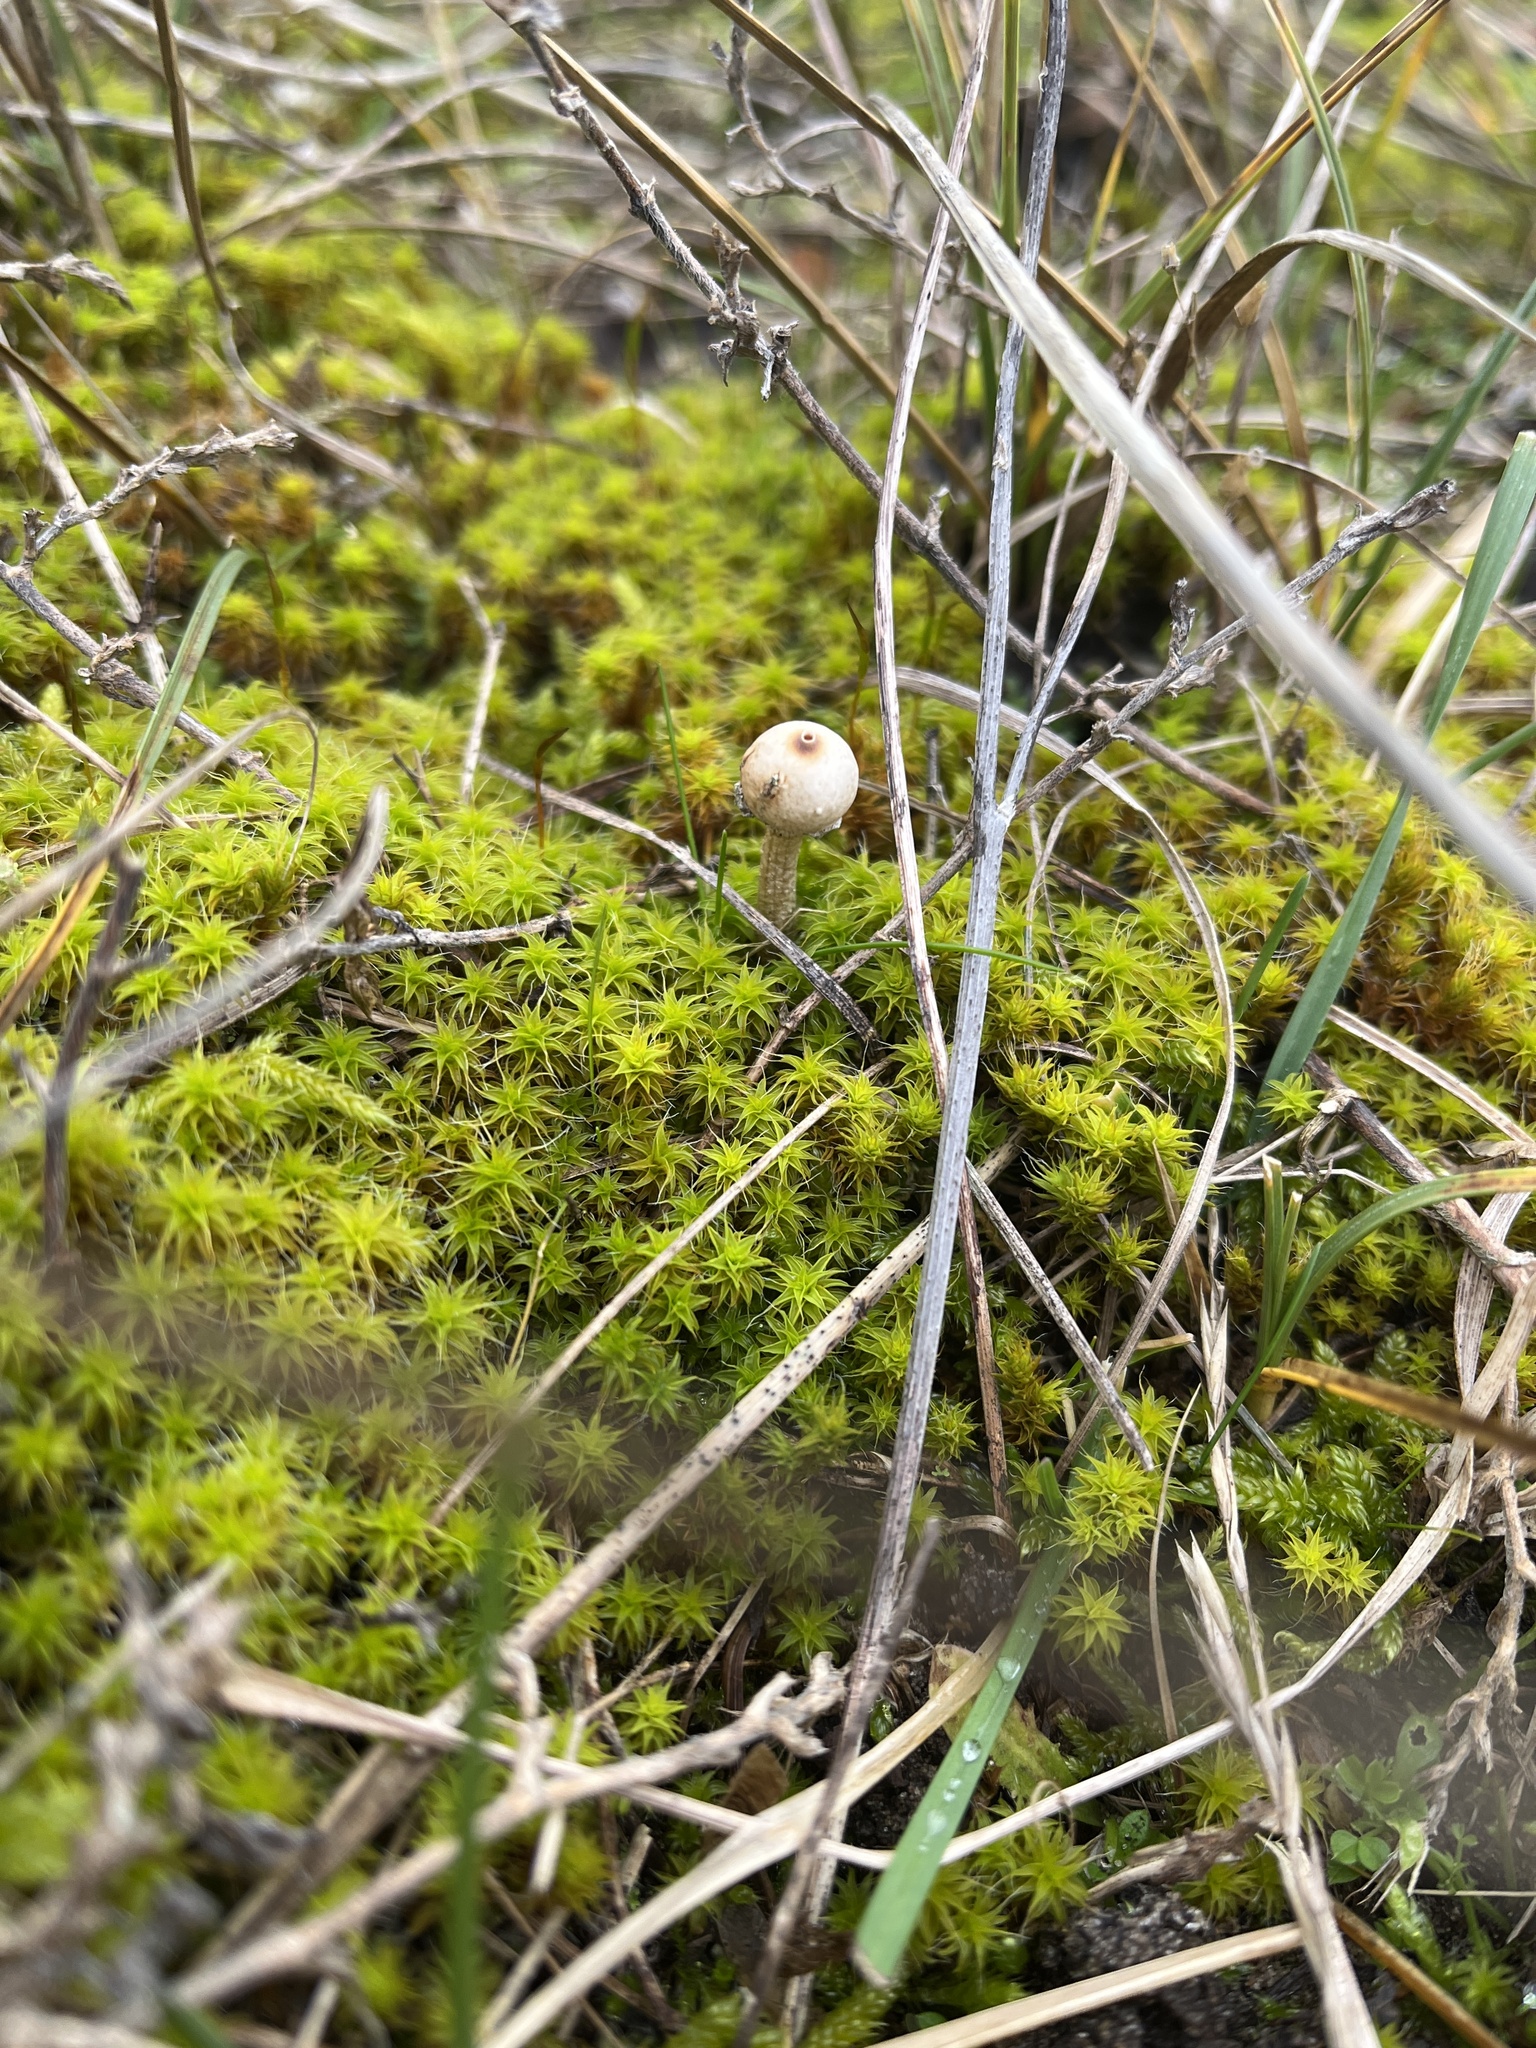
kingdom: Fungi
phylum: Basidiomycota
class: Agaricomycetes
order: Agaricales
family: Agaricaceae
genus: Tulostoma
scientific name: Tulostoma brumale
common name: Winter stalk puffball
